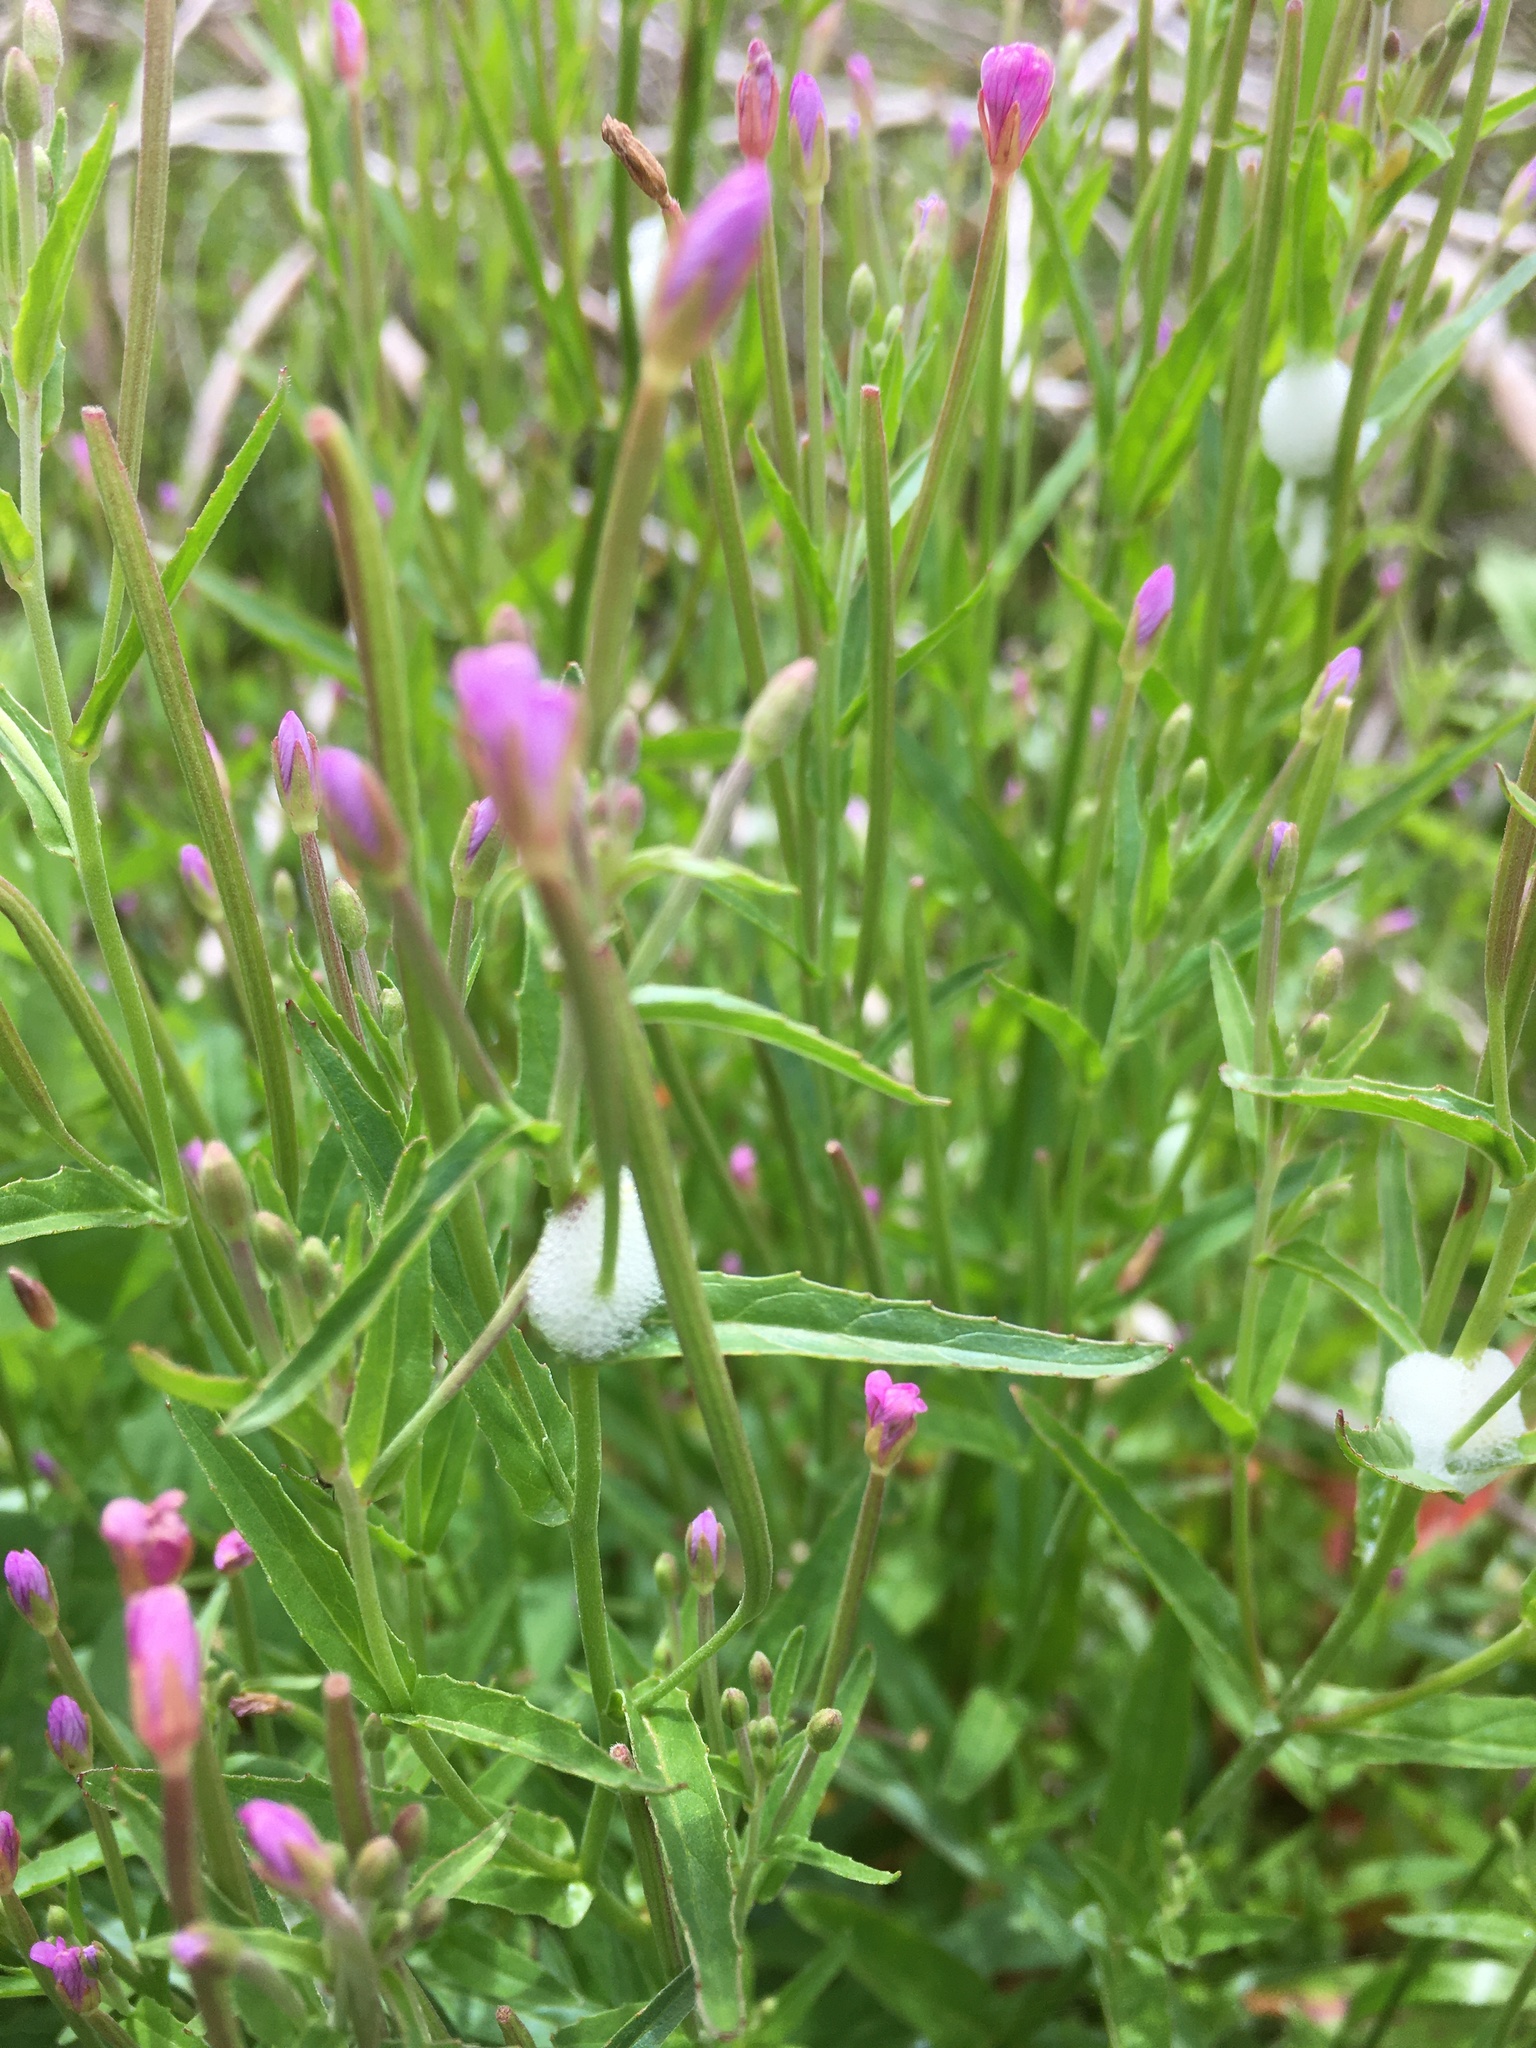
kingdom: Plantae
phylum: Tracheophyta
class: Magnoliopsida
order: Myrtales
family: Onagraceae
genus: Epilobium
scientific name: Epilobium ciliatum
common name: American willowherb
